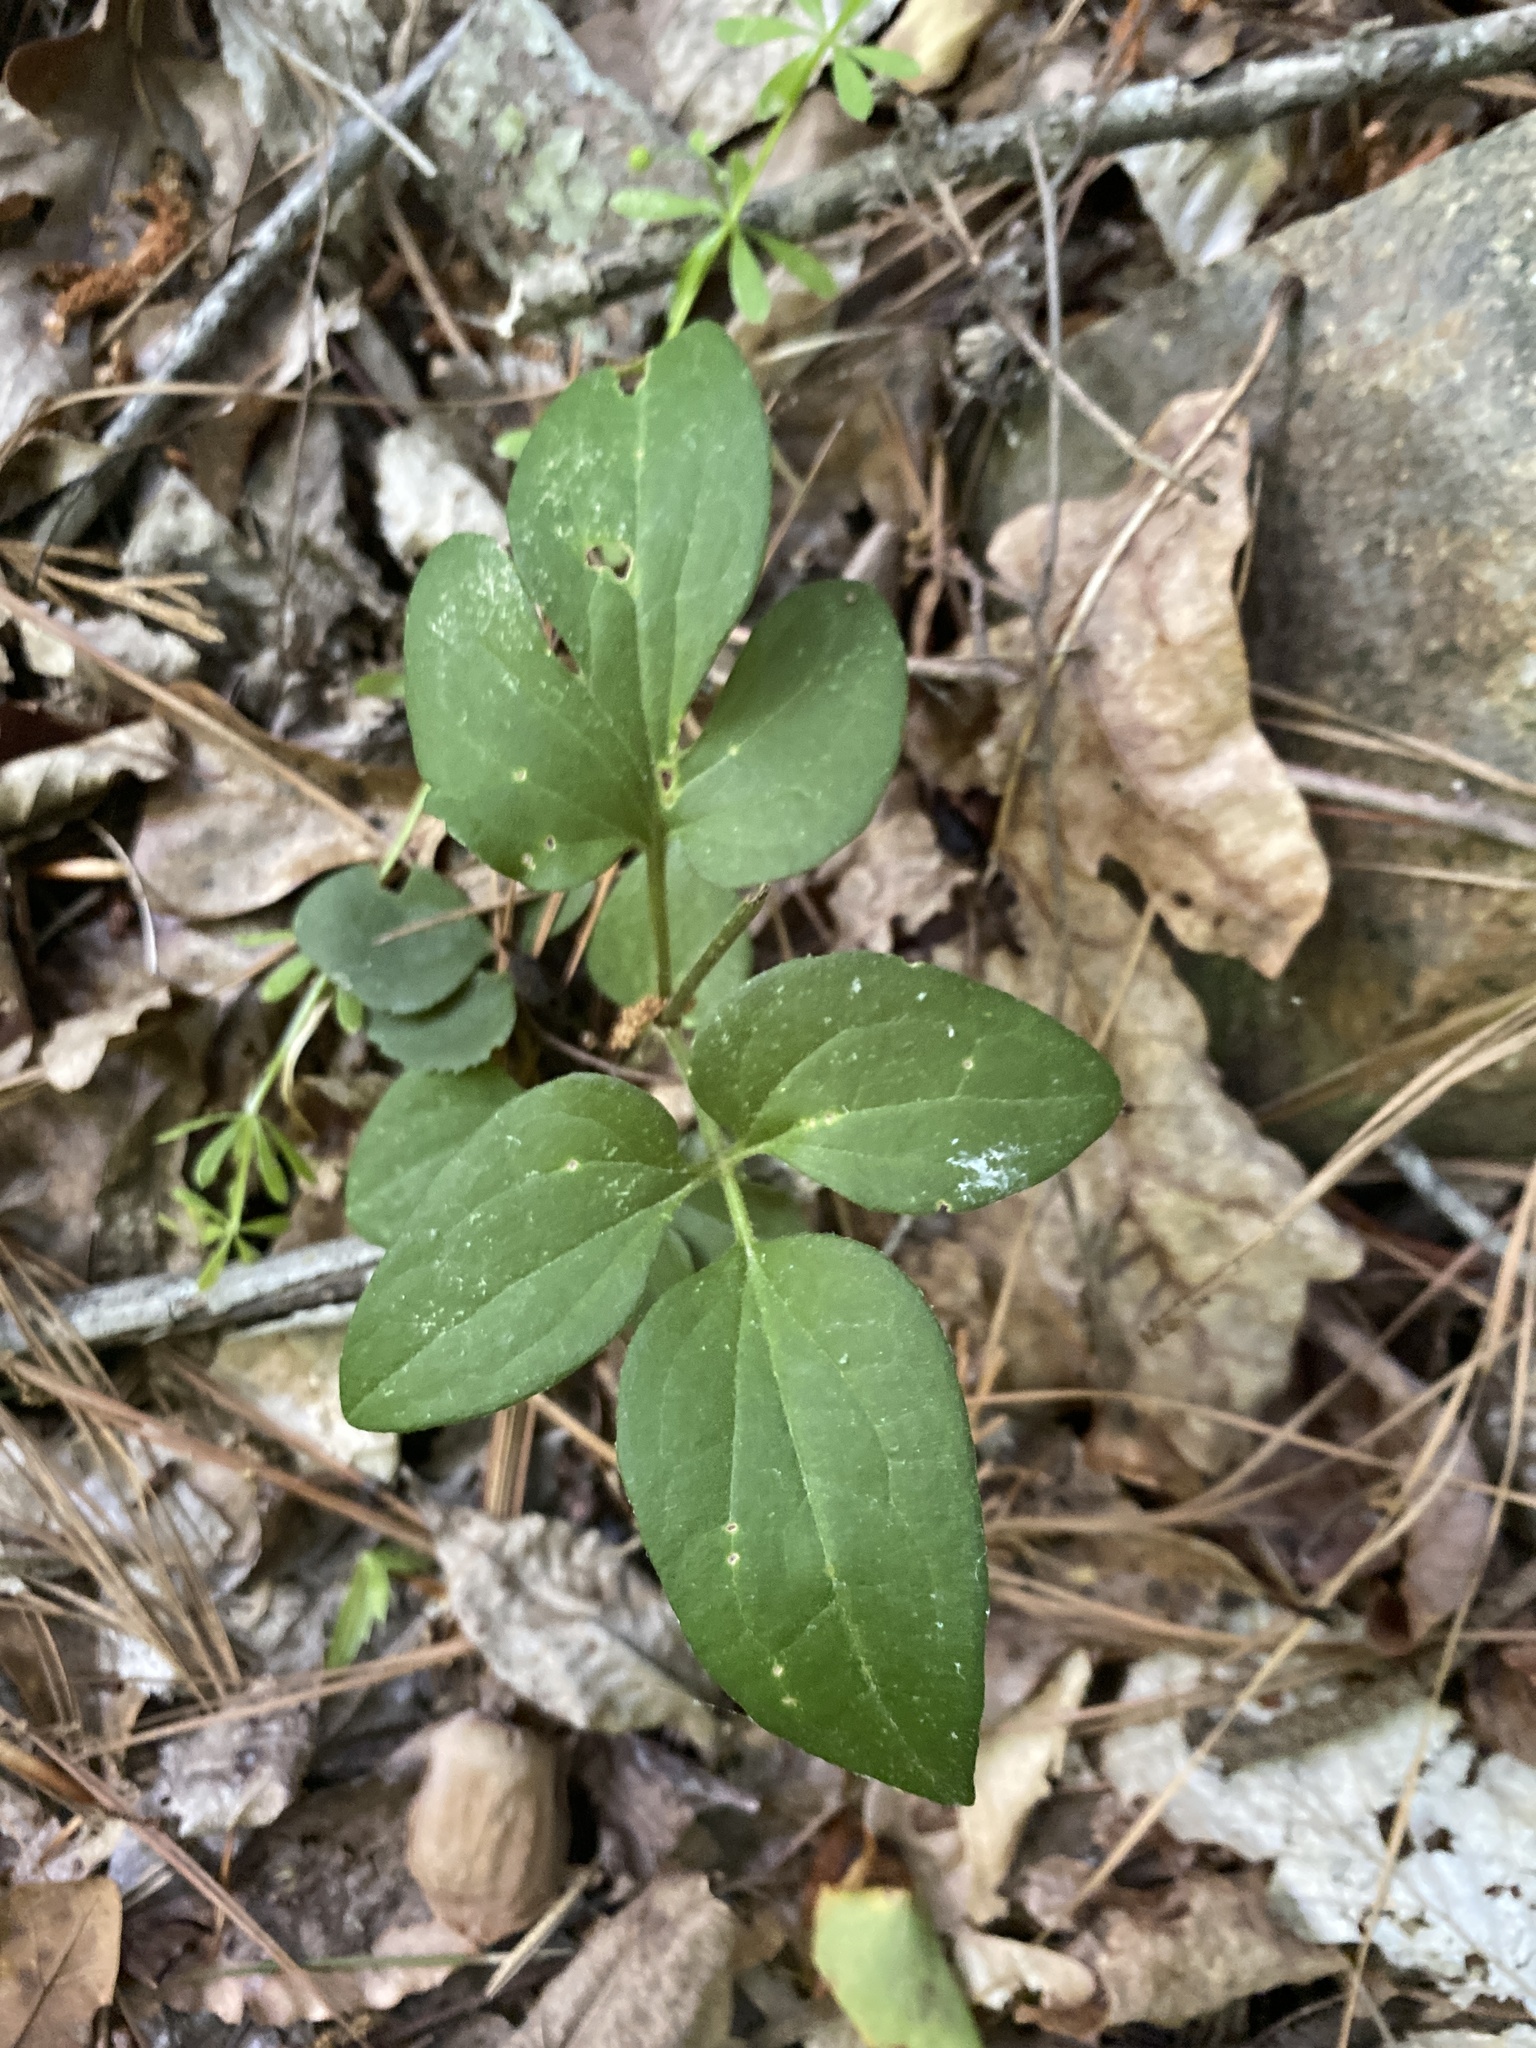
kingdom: Plantae
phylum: Tracheophyta
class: Magnoliopsida
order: Ranunculales
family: Ranunculaceae
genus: Clematis
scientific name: Clematis terniflora
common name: Sweet autumn clematis
